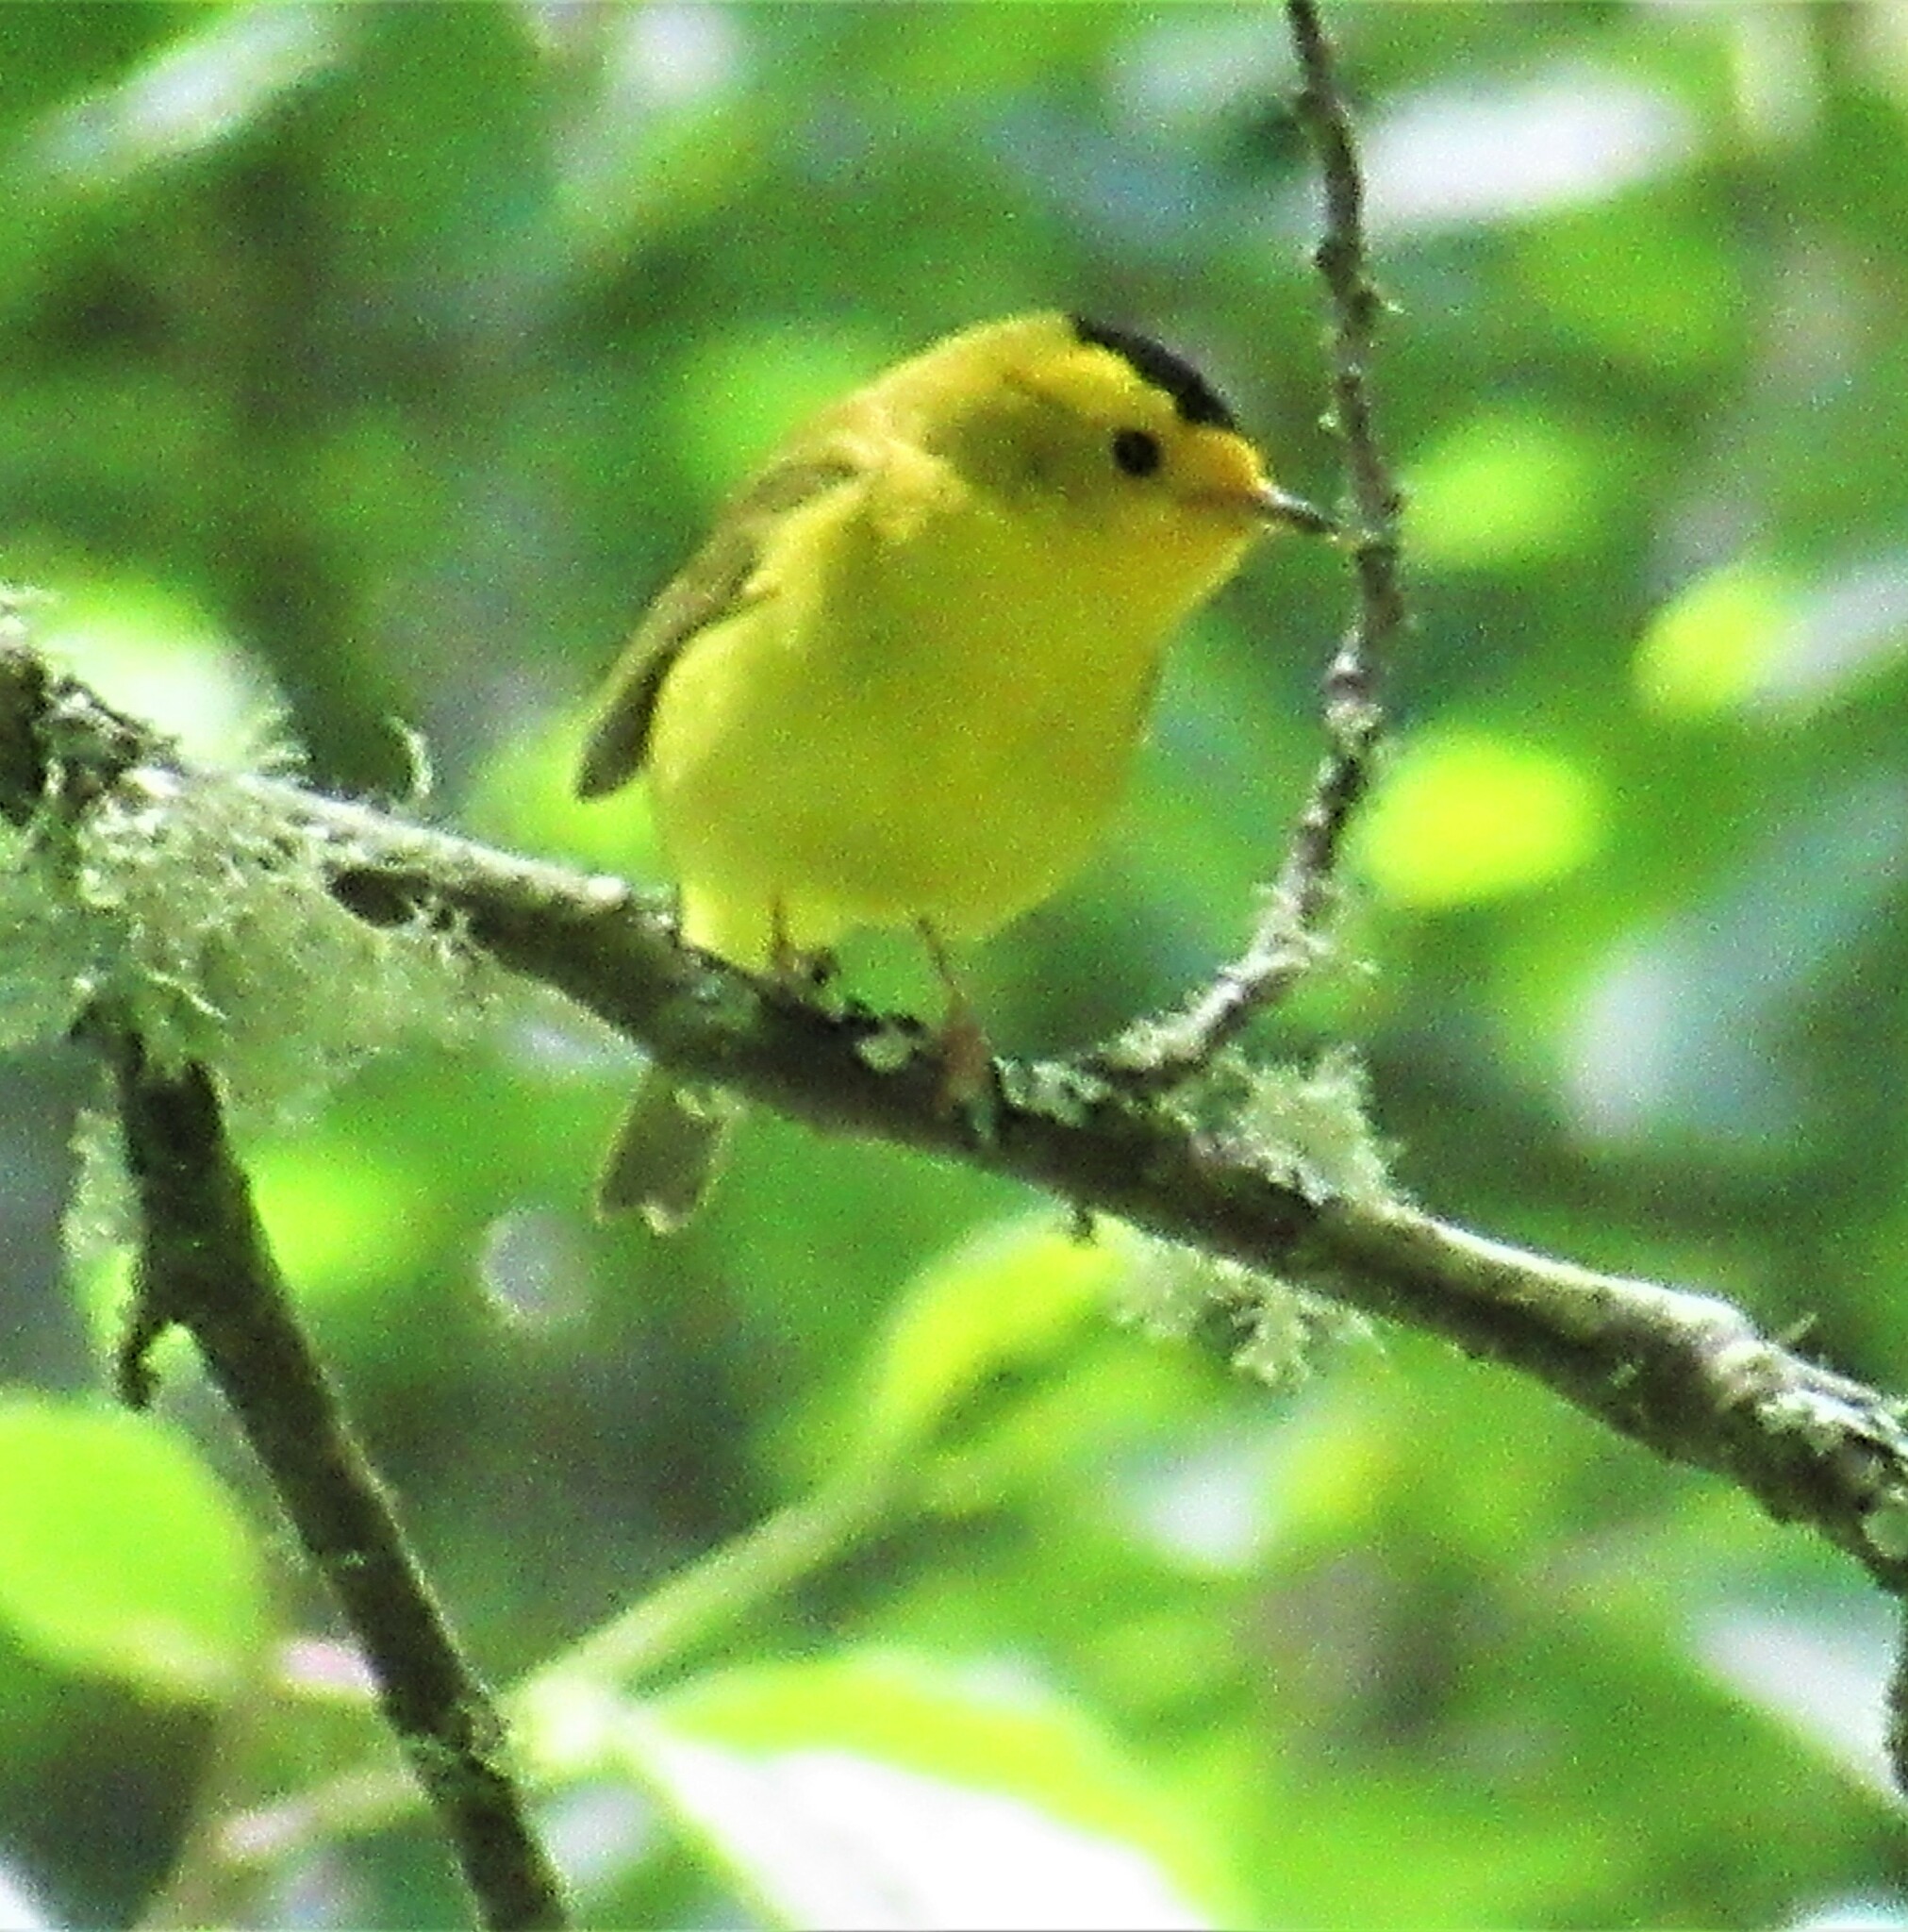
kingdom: Animalia
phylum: Chordata
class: Aves
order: Passeriformes
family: Parulidae
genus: Cardellina
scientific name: Cardellina pusilla
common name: Wilson's warbler
